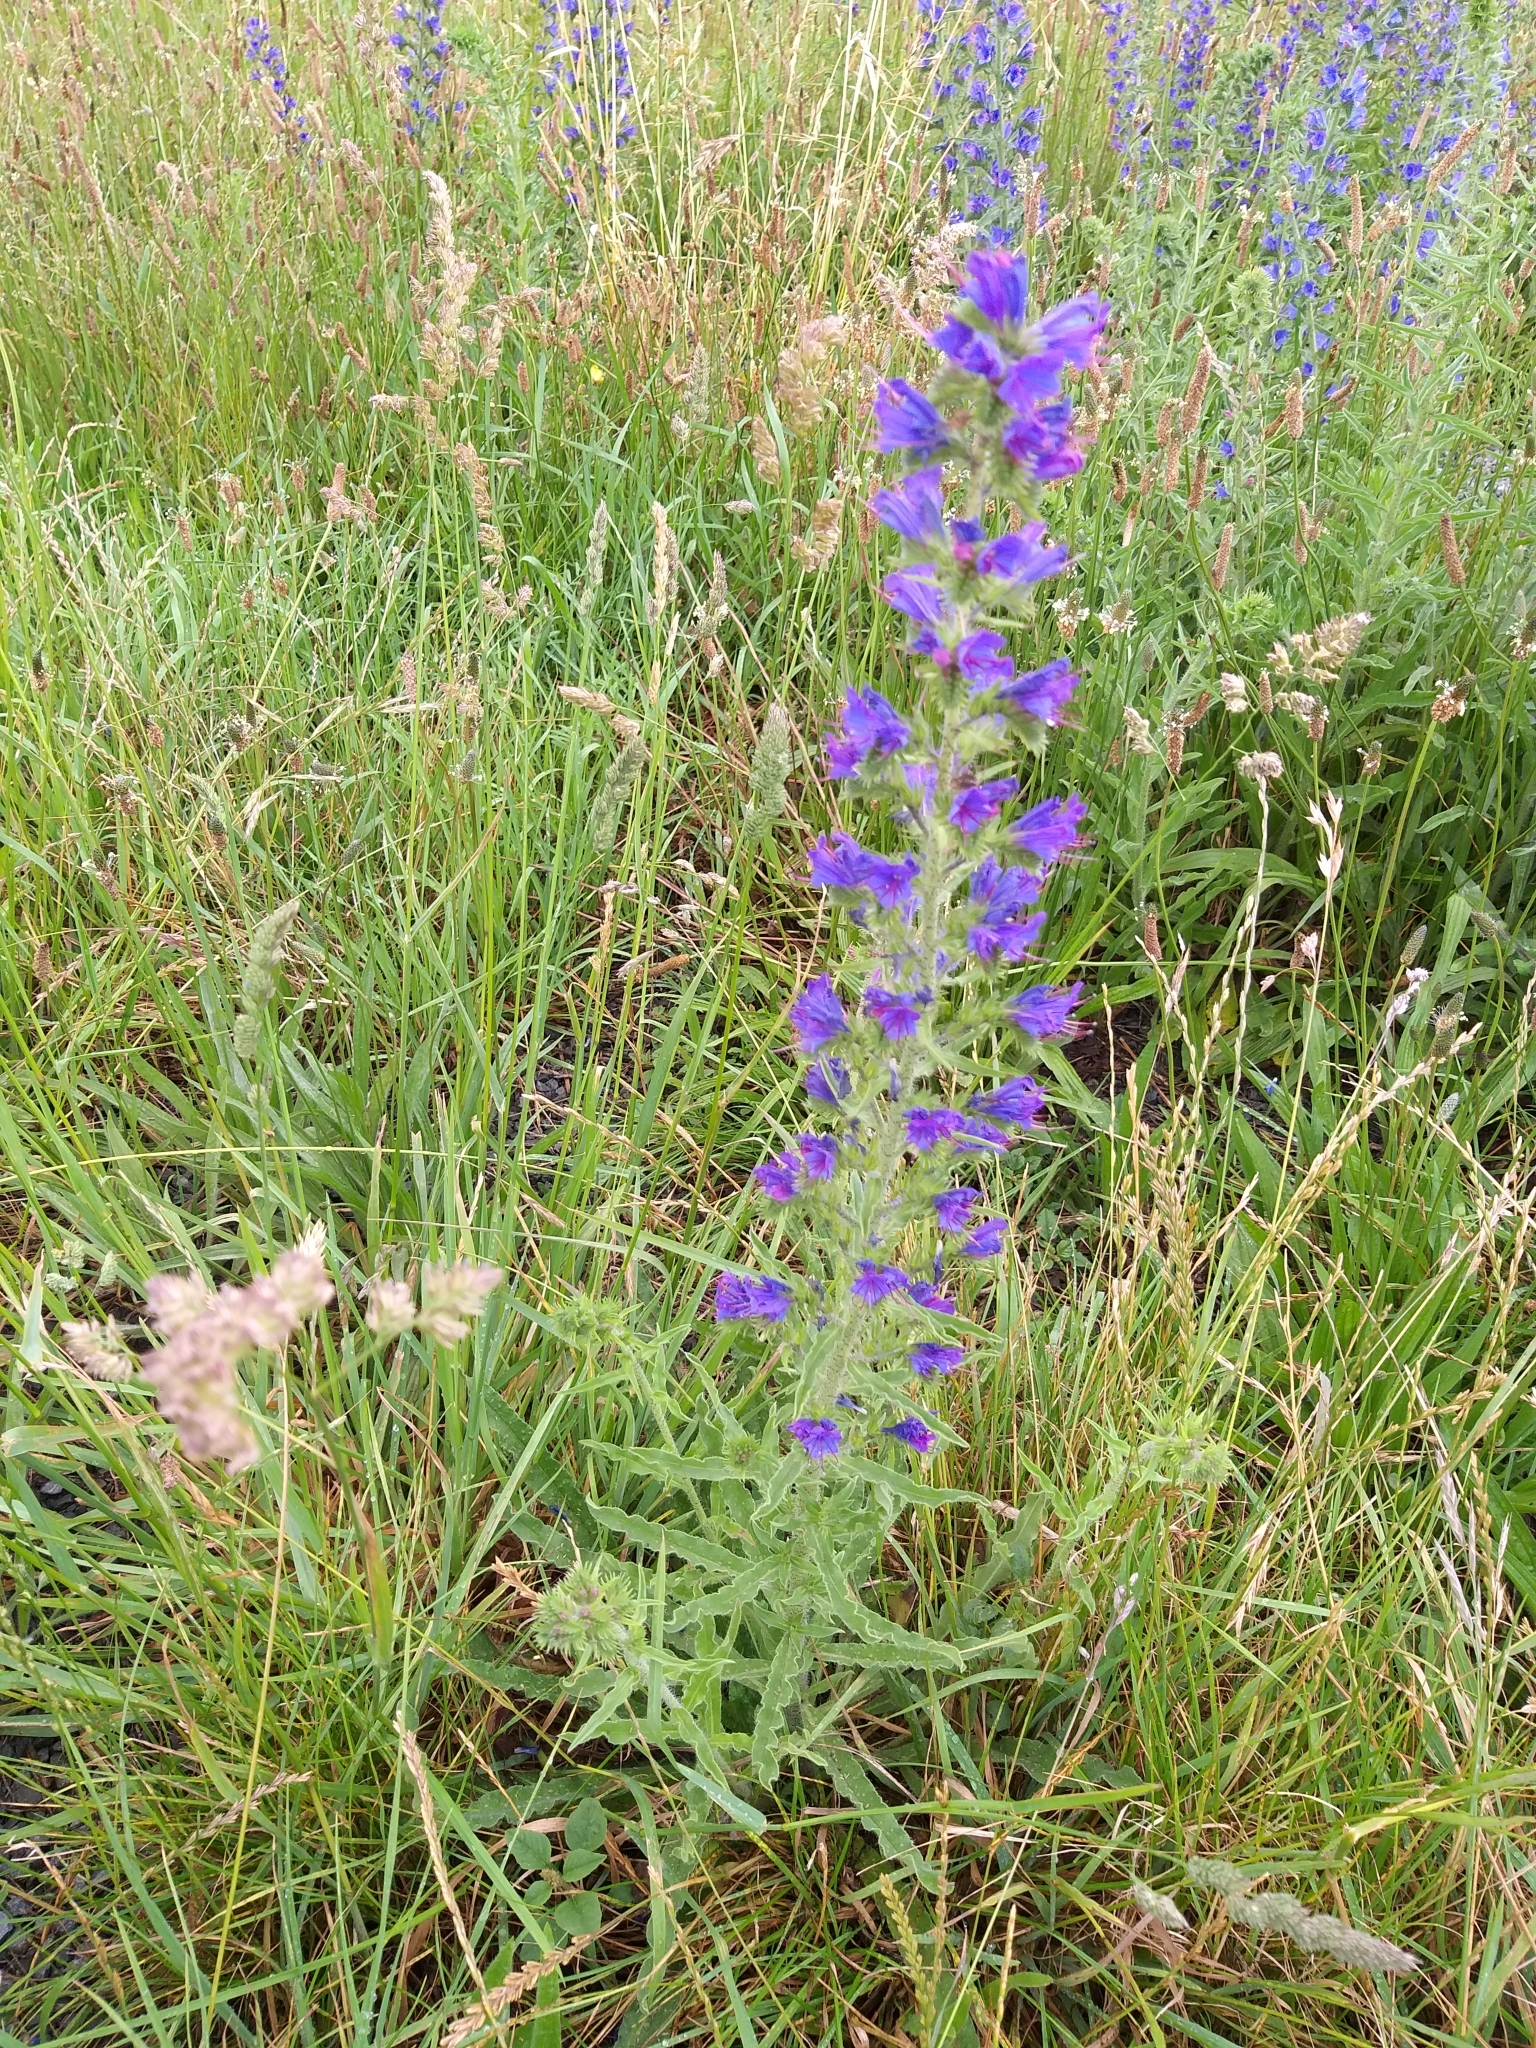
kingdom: Plantae
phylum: Tracheophyta
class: Magnoliopsida
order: Boraginales
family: Boraginaceae
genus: Echium
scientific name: Echium vulgare
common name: Common viper's bugloss
